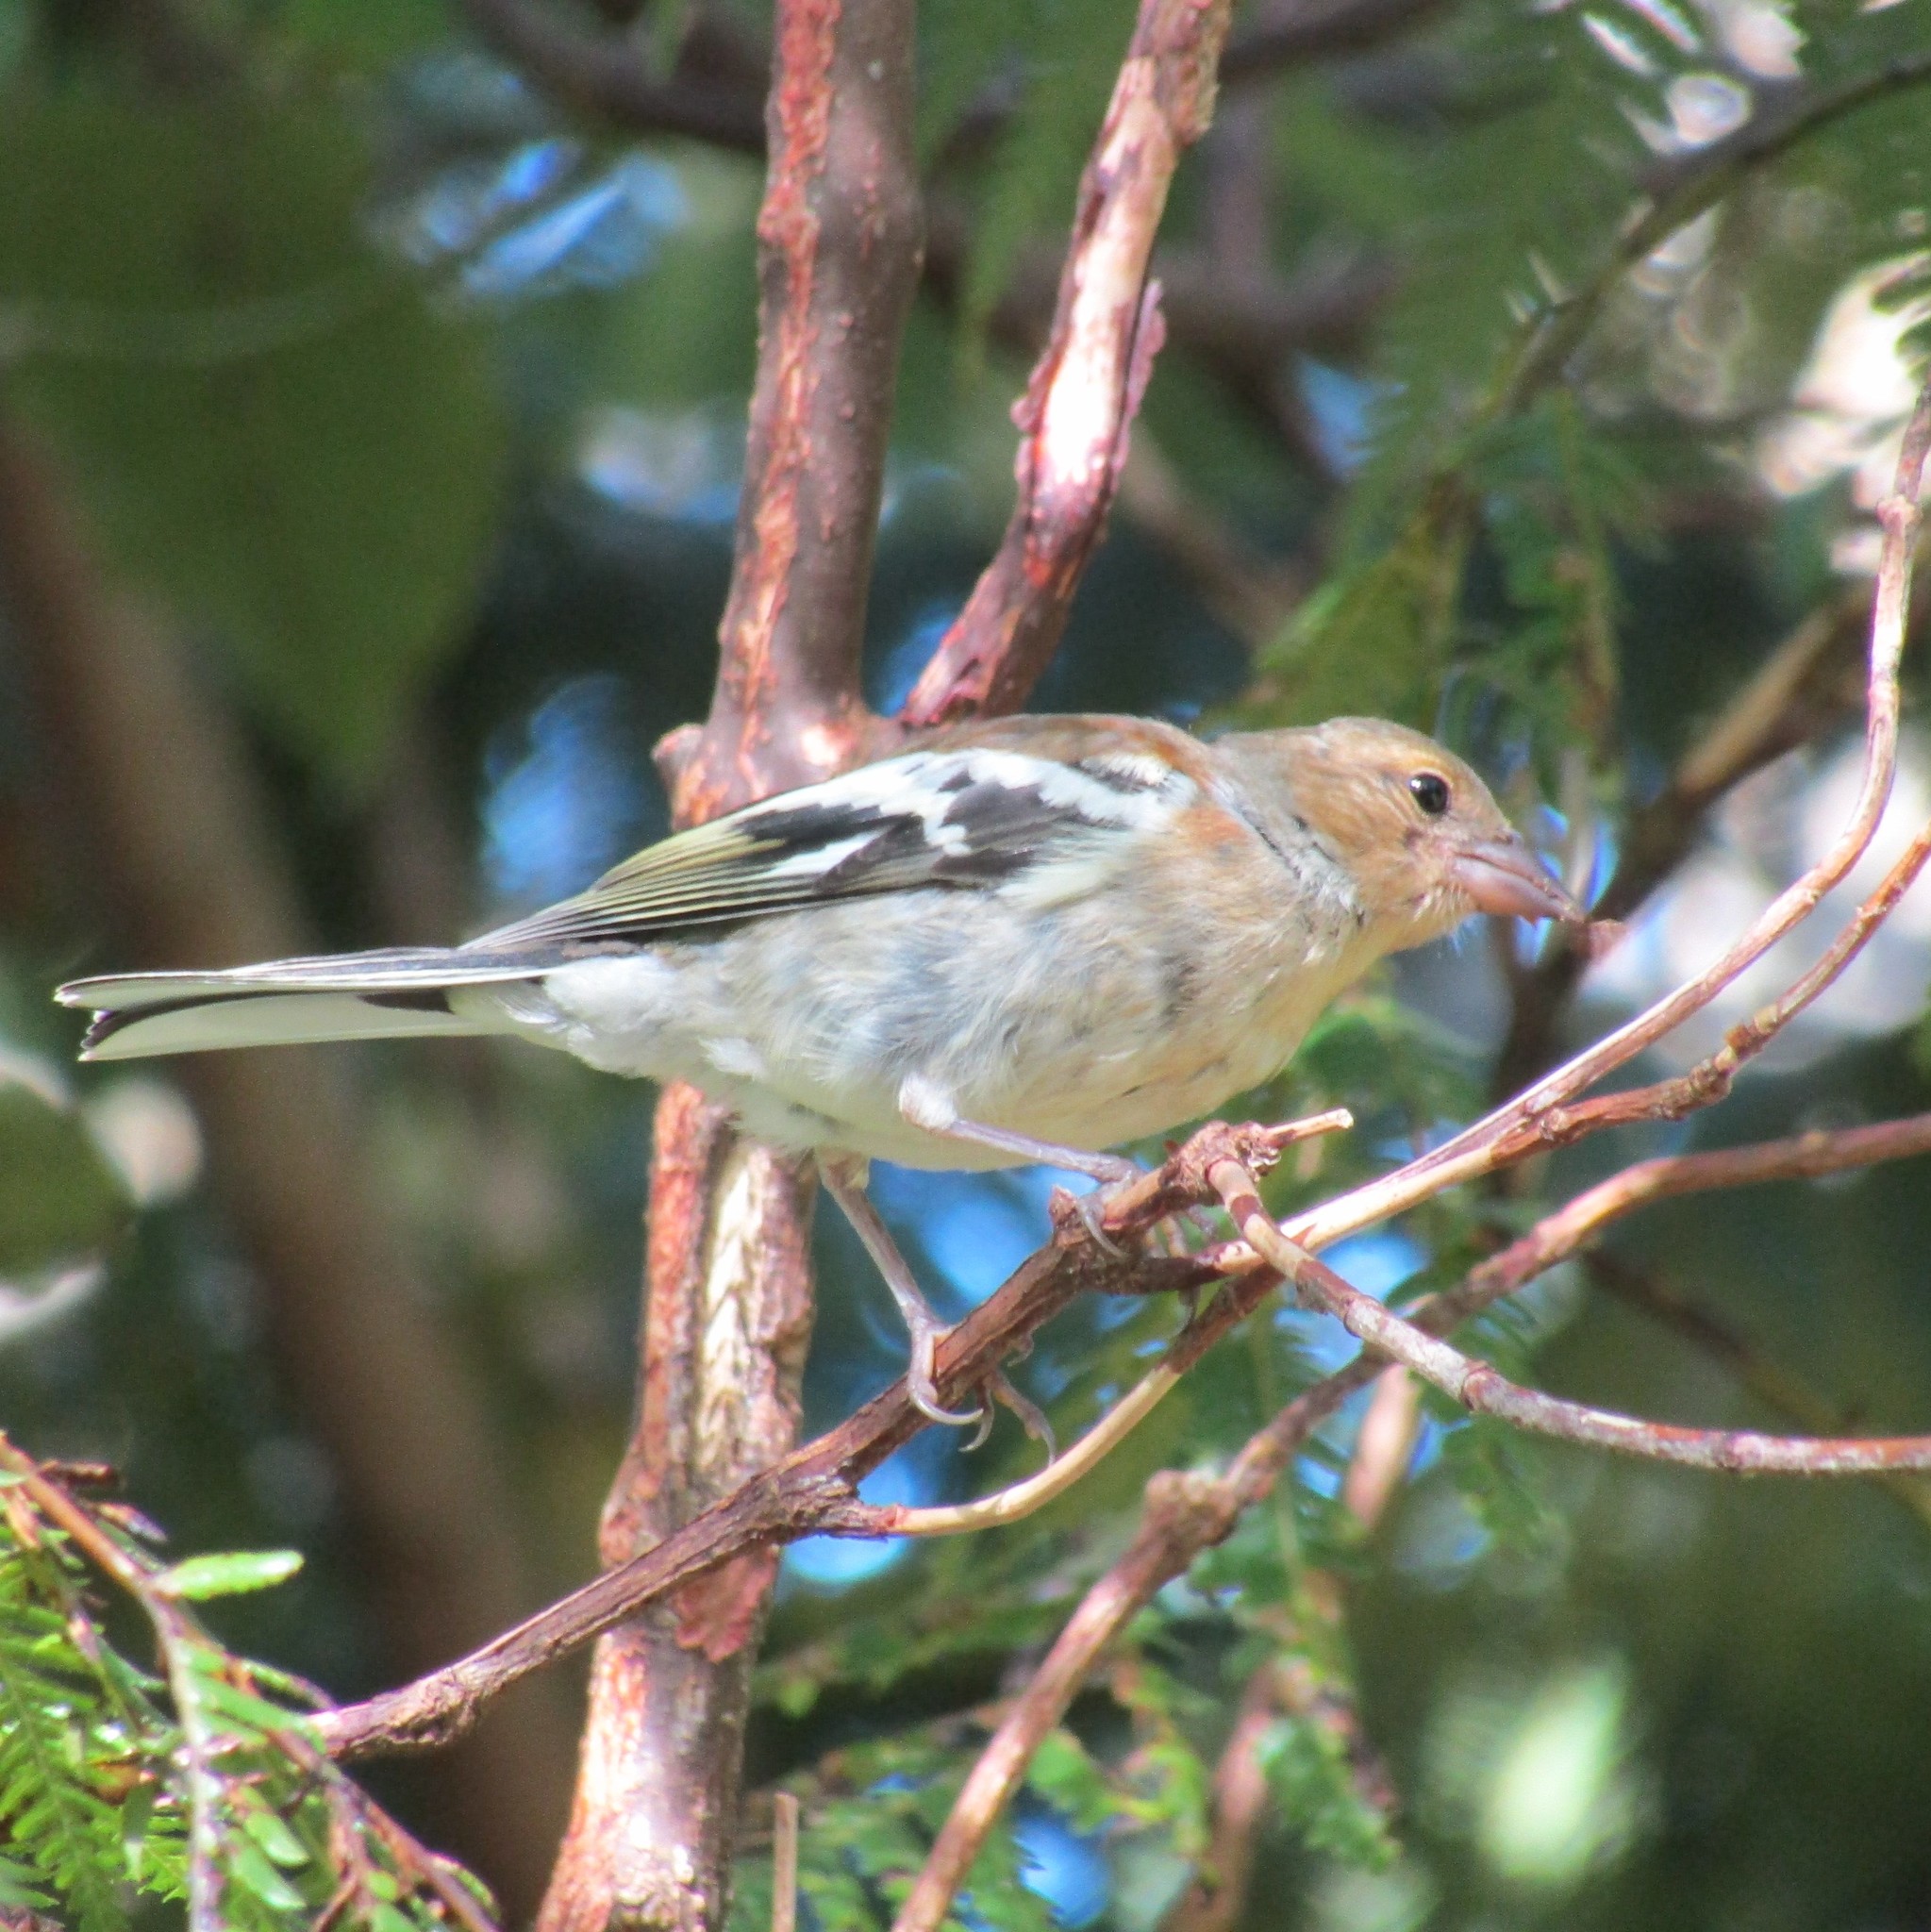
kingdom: Animalia
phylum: Chordata
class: Aves
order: Passeriformes
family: Fringillidae
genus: Fringilla
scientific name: Fringilla coelebs
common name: Common chaffinch
